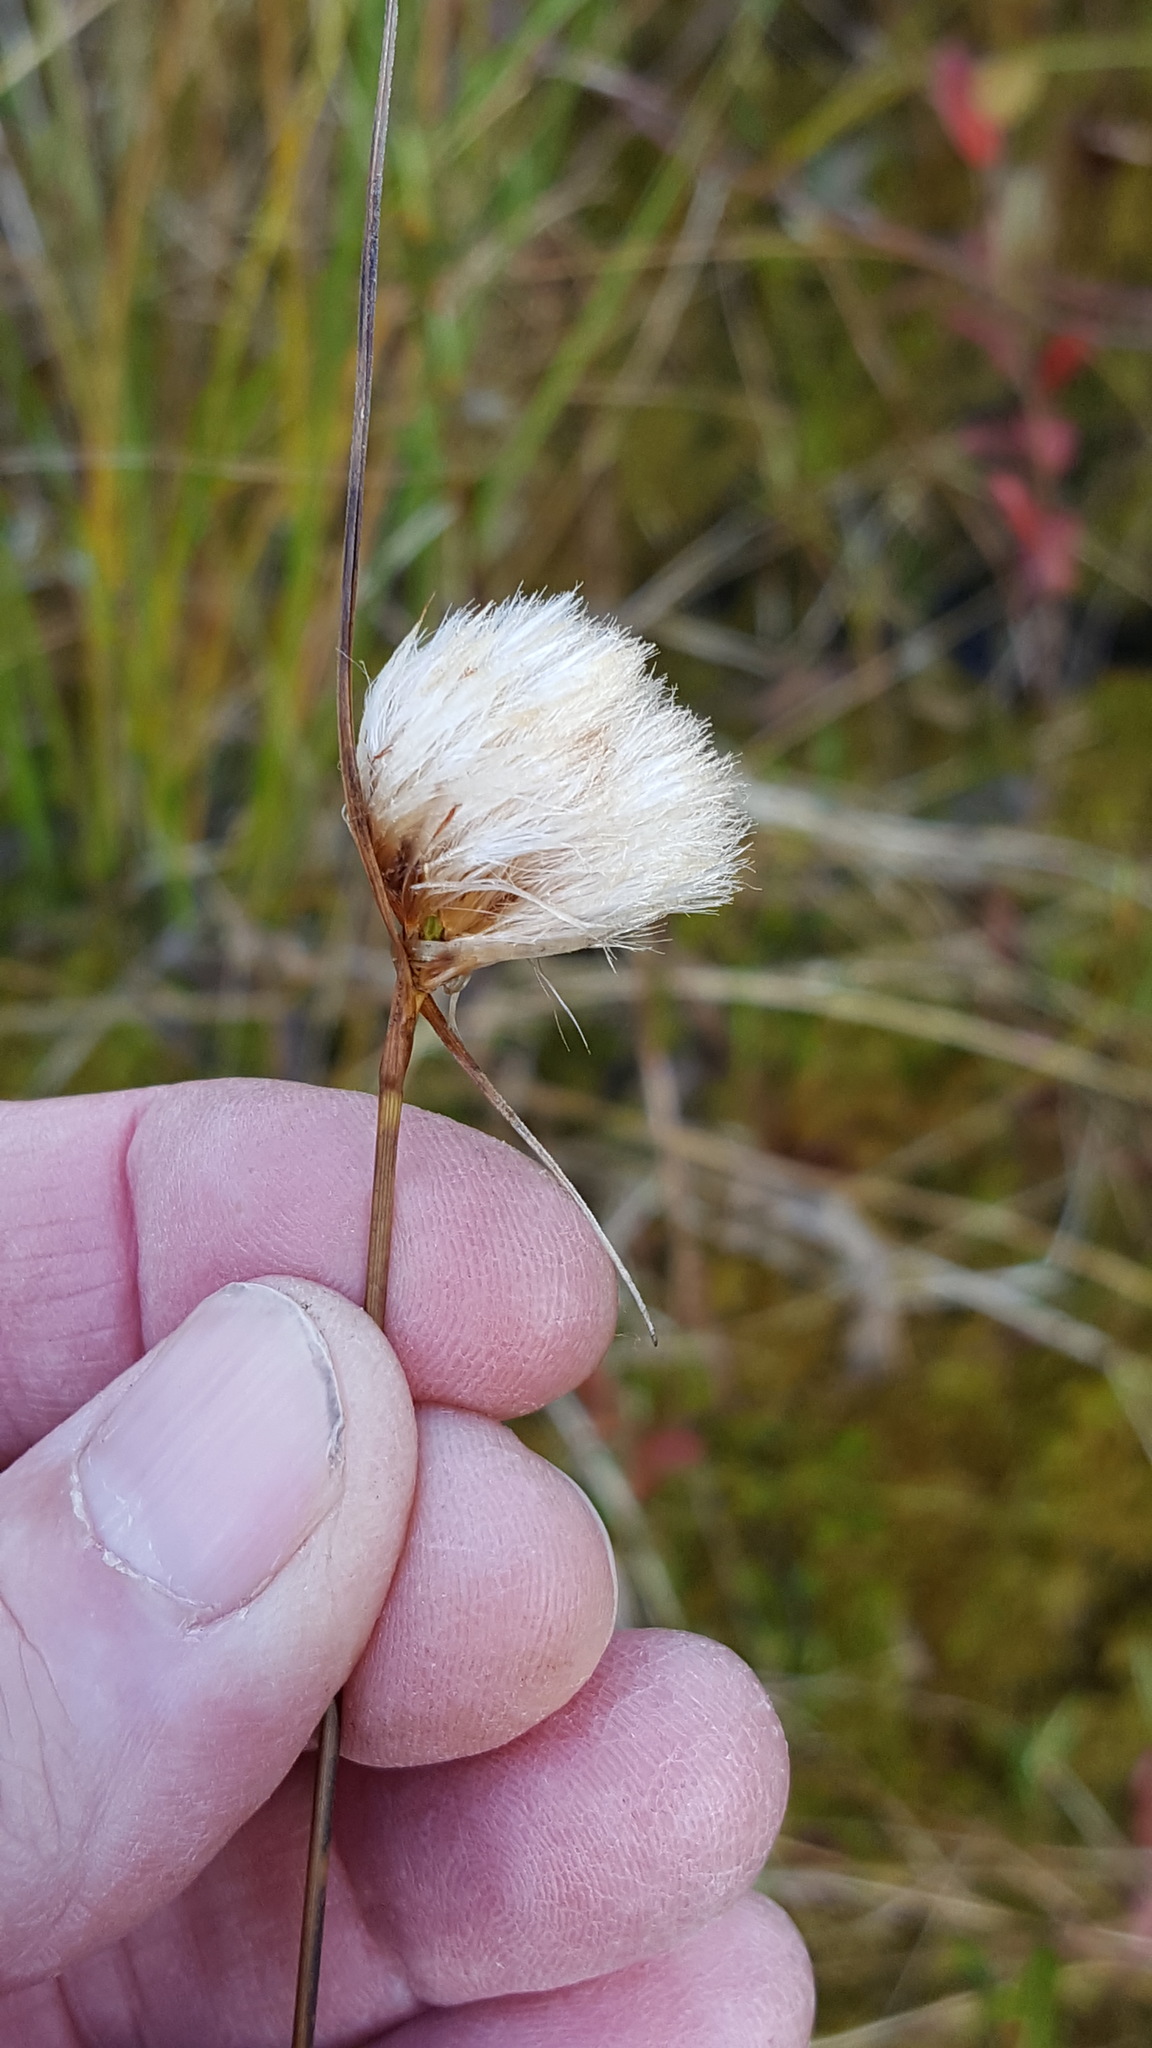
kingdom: Plantae
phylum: Tracheophyta
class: Liliopsida
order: Poales
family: Cyperaceae
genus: Eriophorum
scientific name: Eriophorum virginicum
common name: Tawny cottongrass
